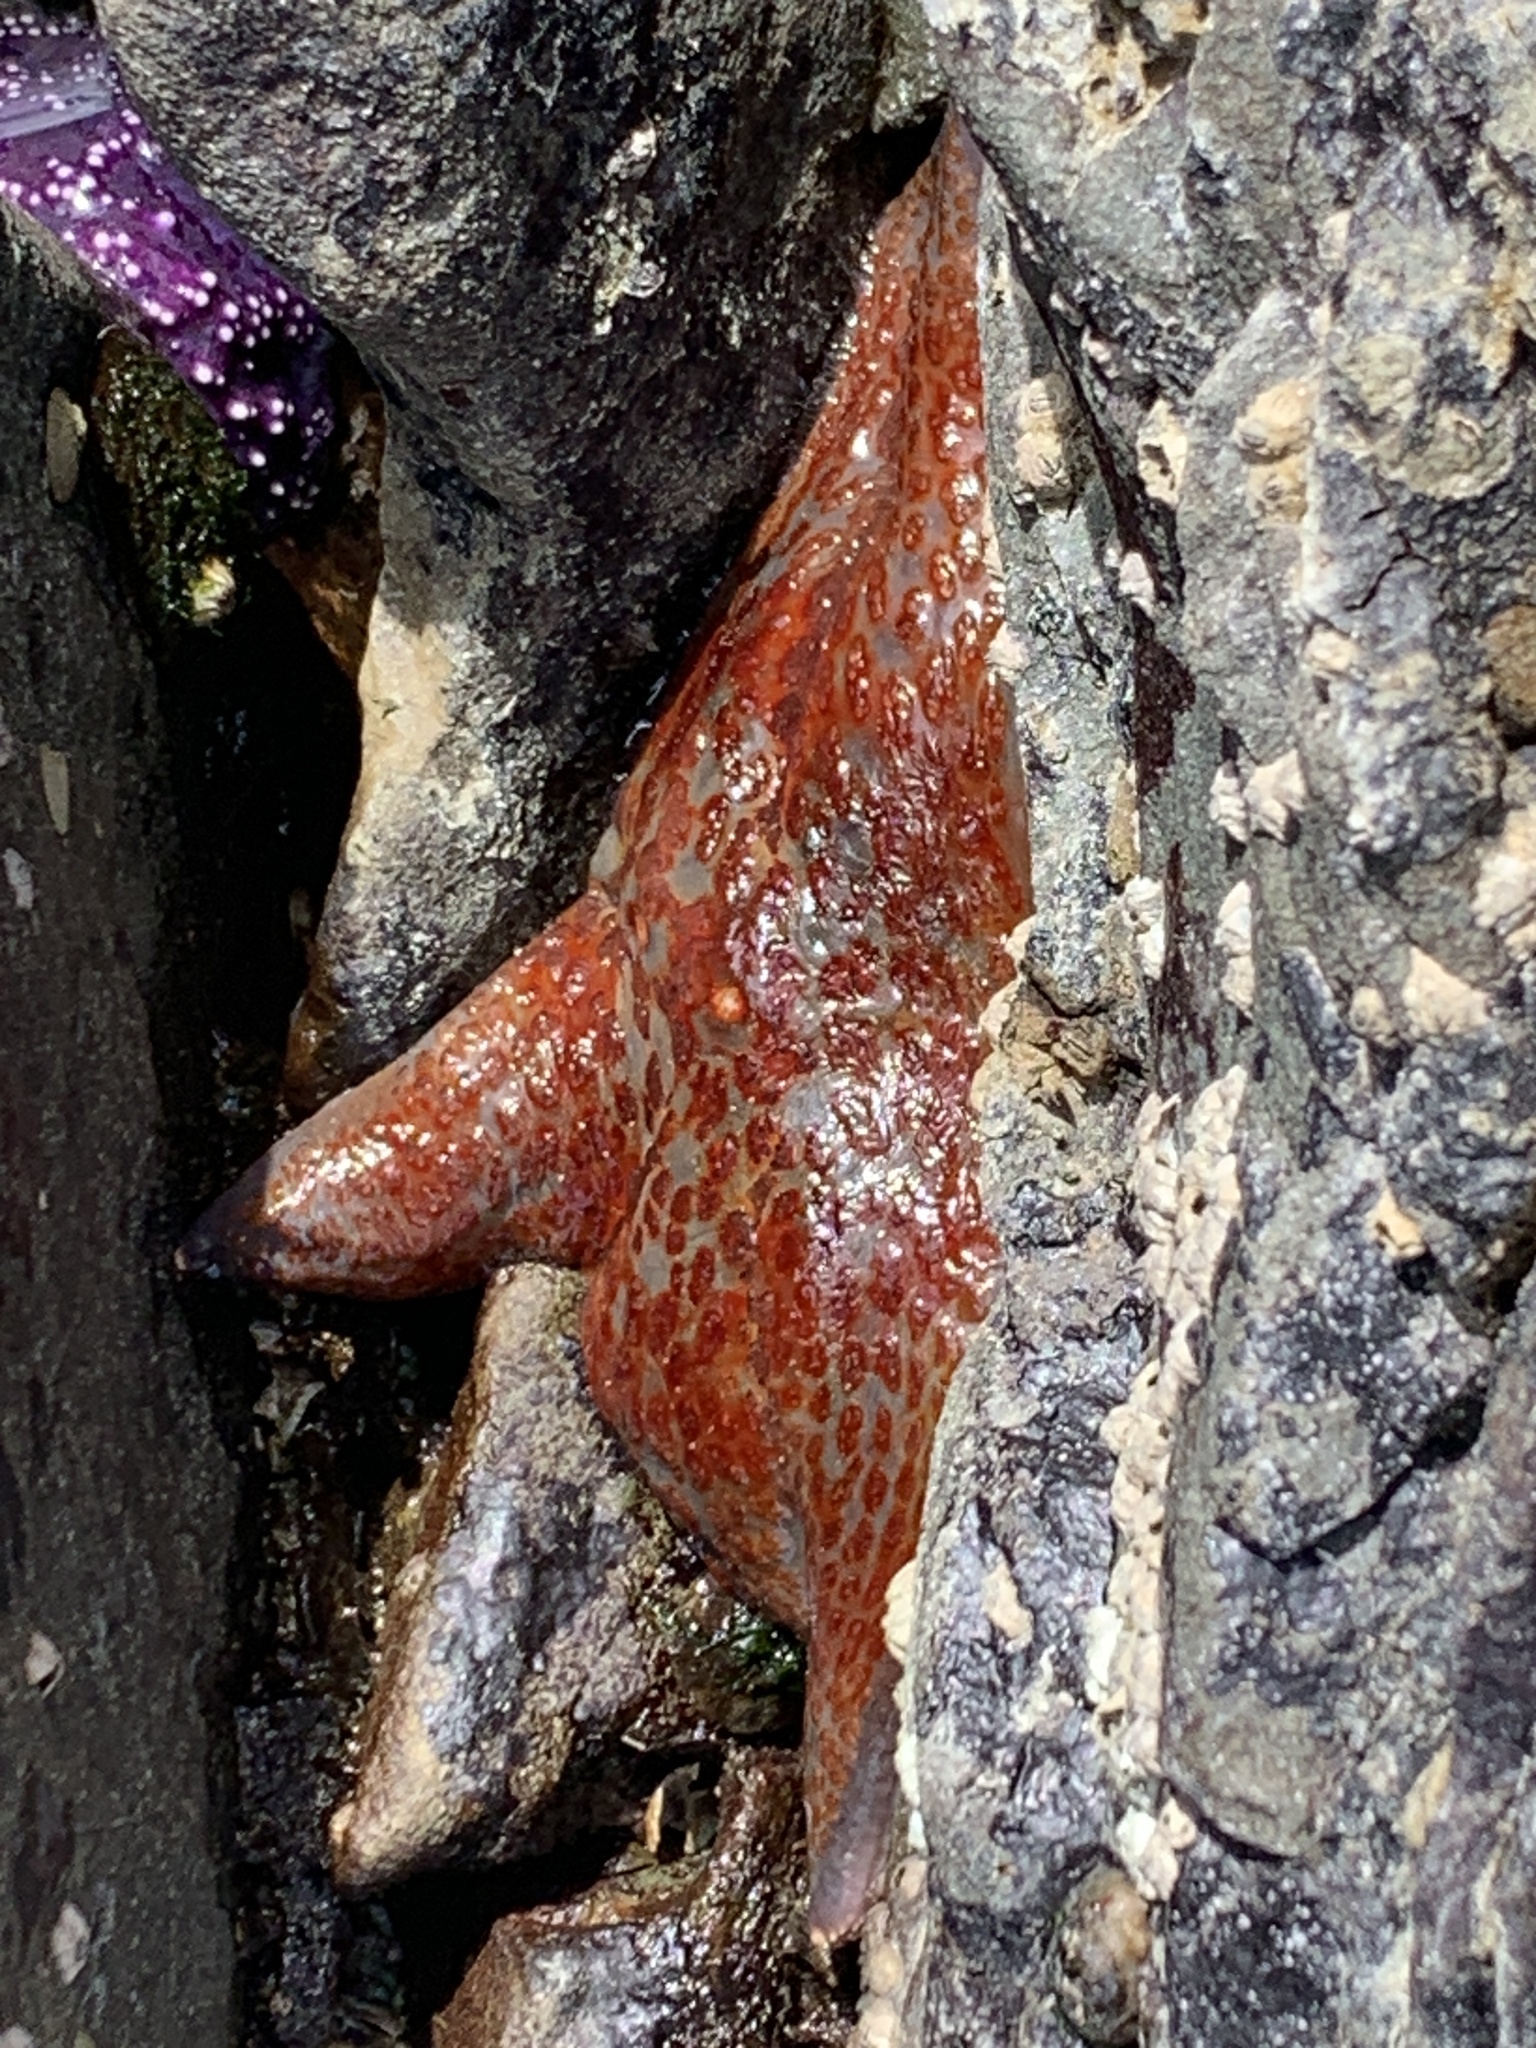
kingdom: Animalia
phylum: Echinodermata
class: Asteroidea
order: Valvatida
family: Asteropseidae
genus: Dermasterias
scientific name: Dermasterias imbricata
